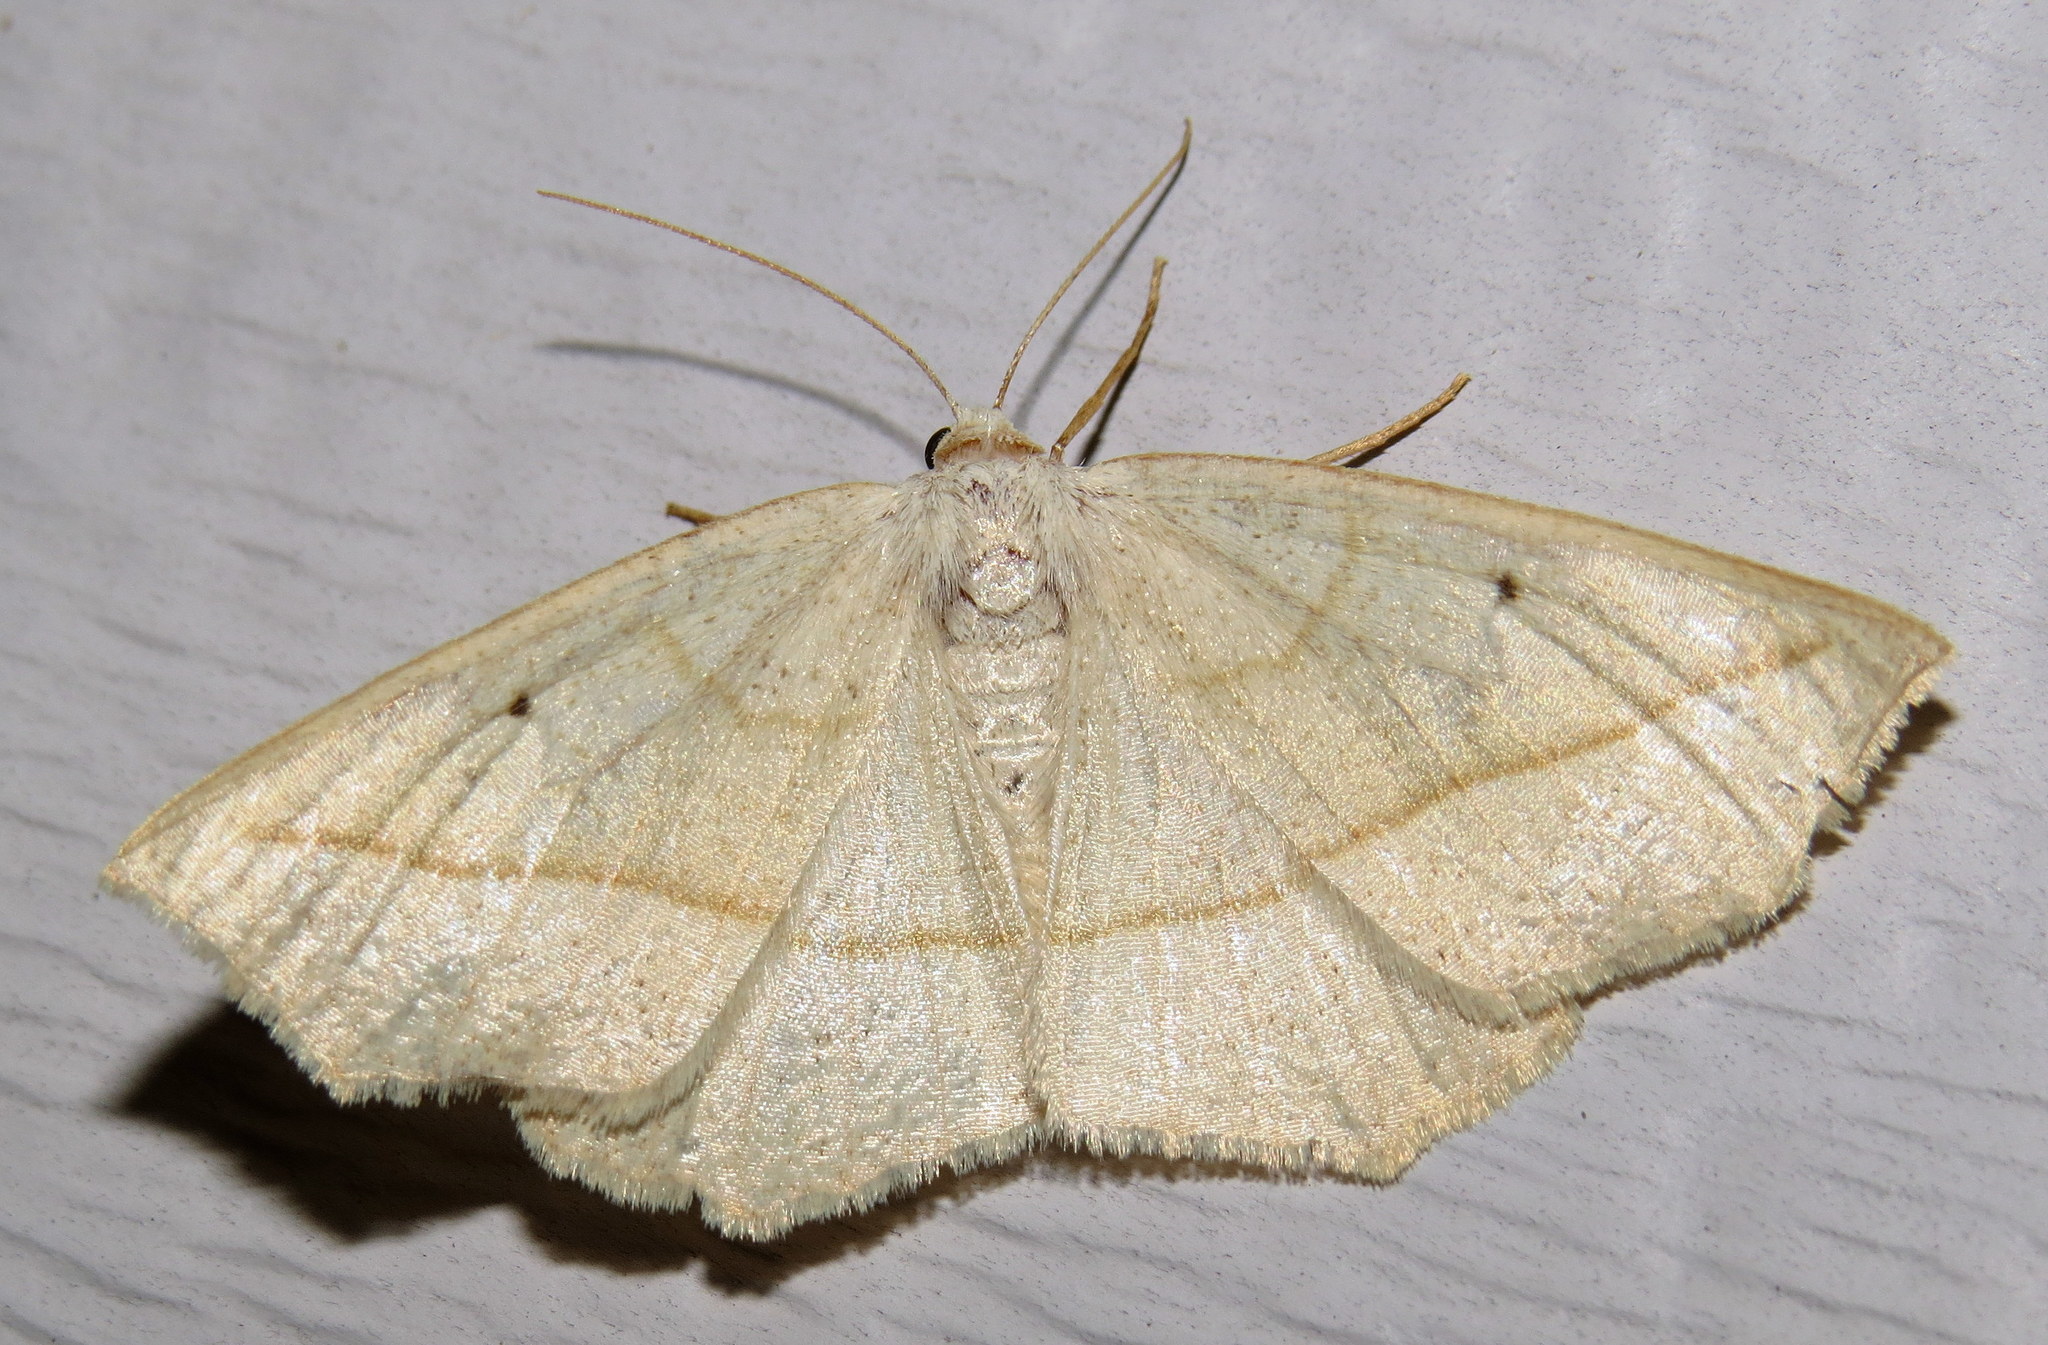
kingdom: Animalia
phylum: Arthropoda
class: Insecta
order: Lepidoptera
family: Geometridae
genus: Eusarca
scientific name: Eusarca confusaria
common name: Confused eusarca
